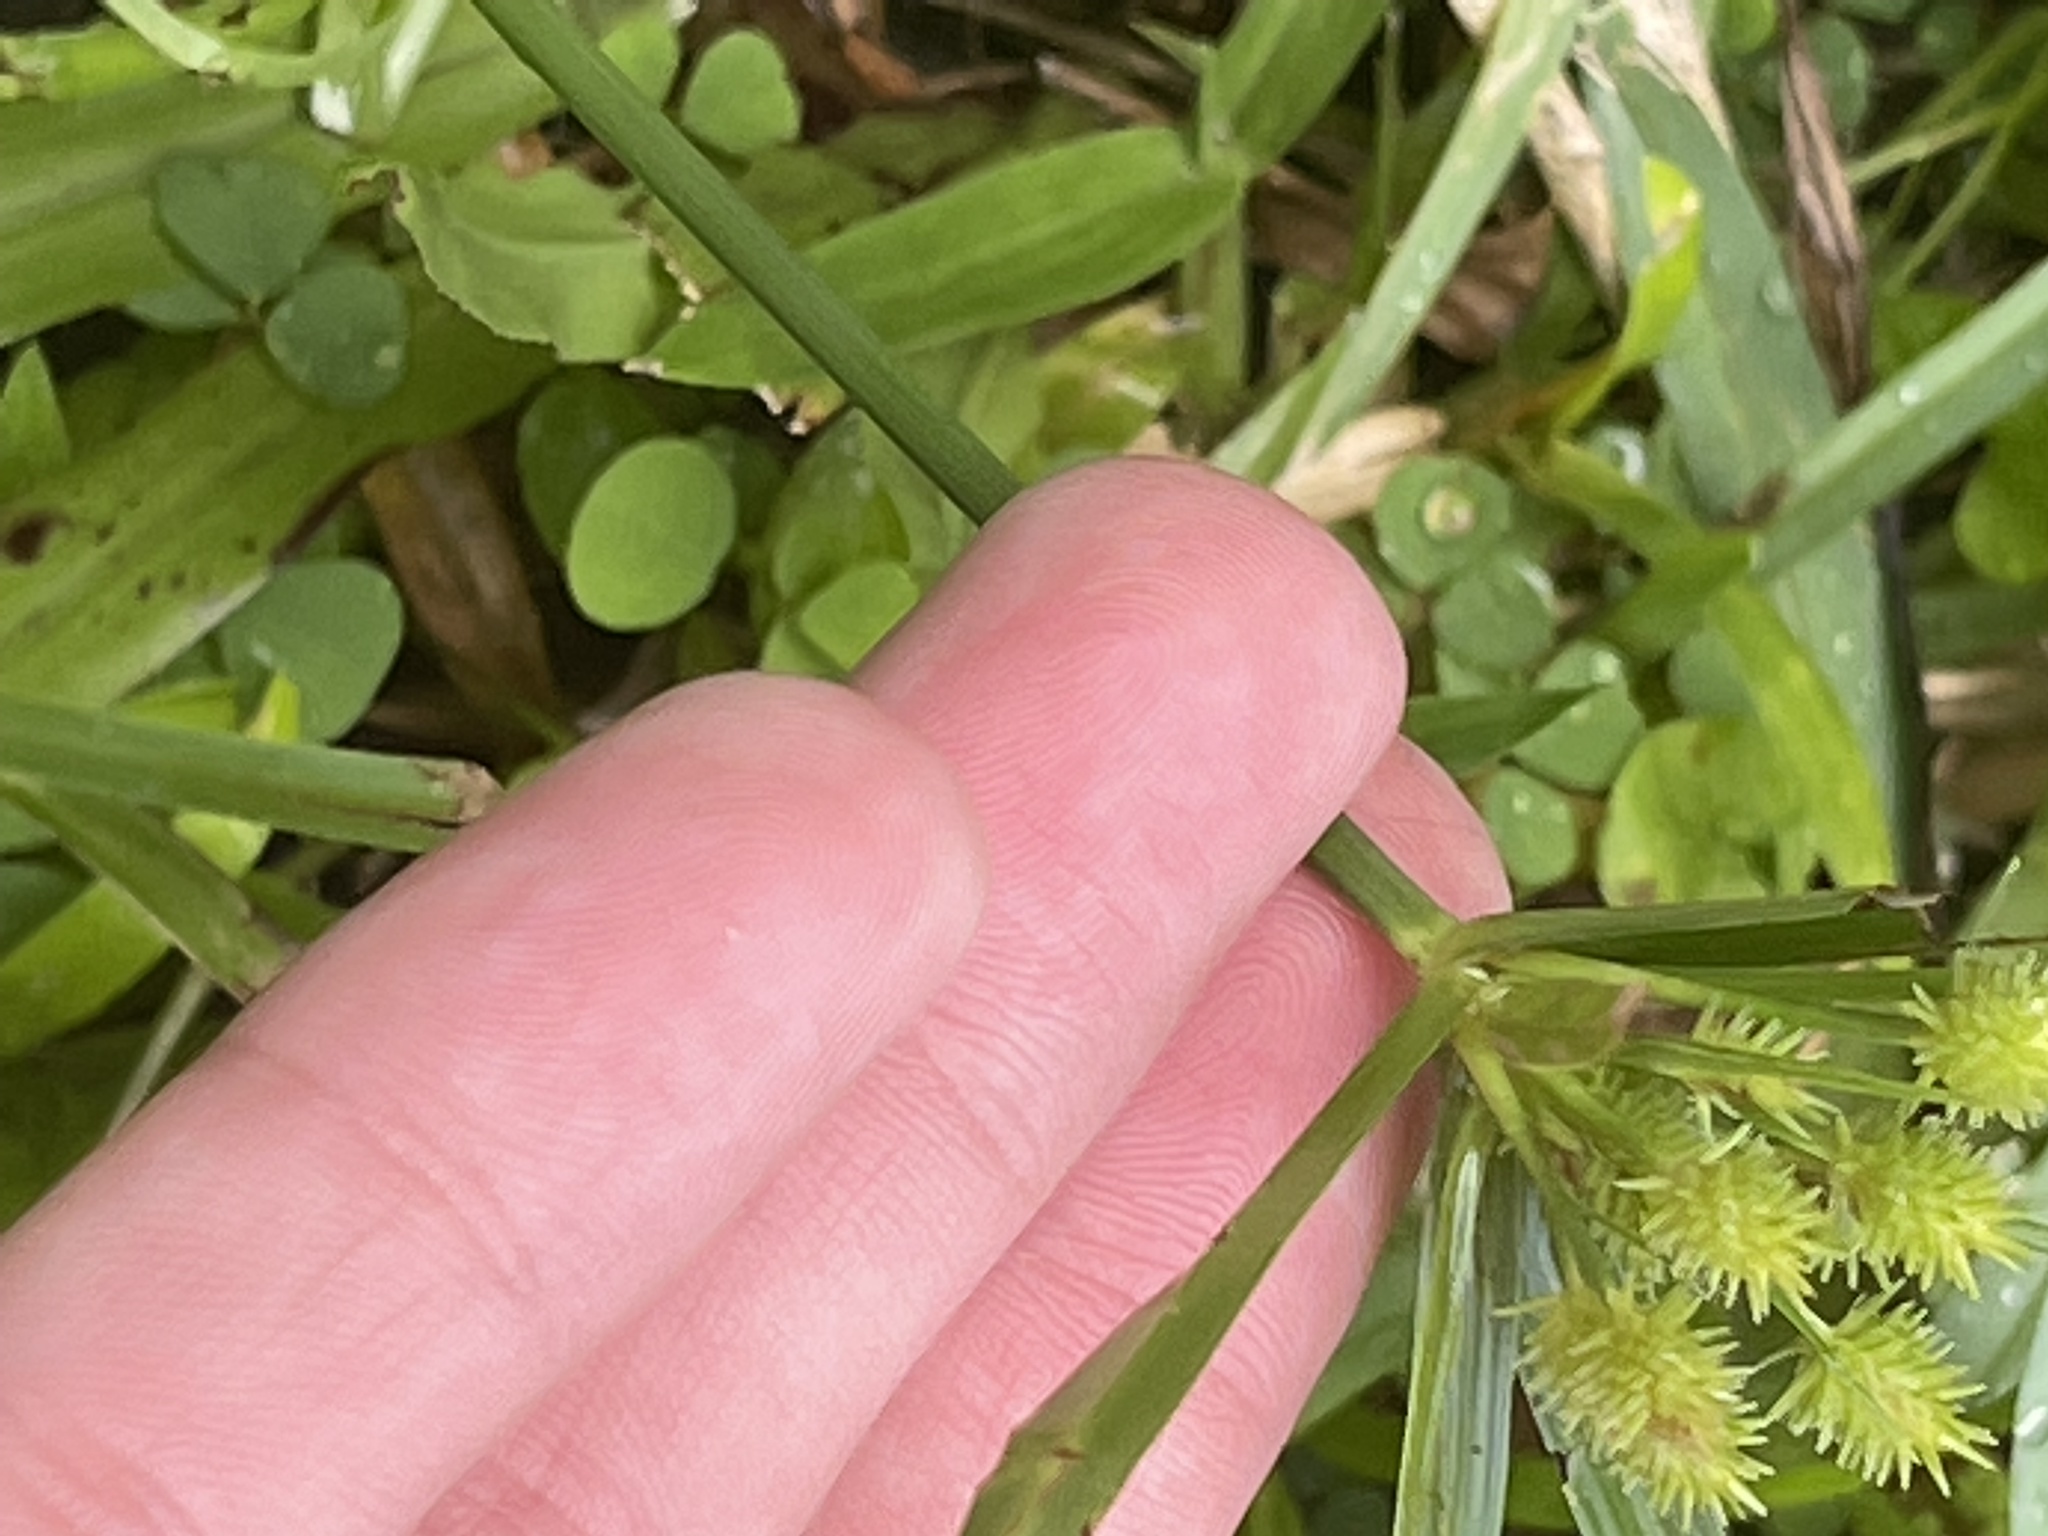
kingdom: Plantae
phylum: Tracheophyta
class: Liliopsida
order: Poales
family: Cyperaceae
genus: Cyperus
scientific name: Cyperus croceus
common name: Baldwin's flatsedge
